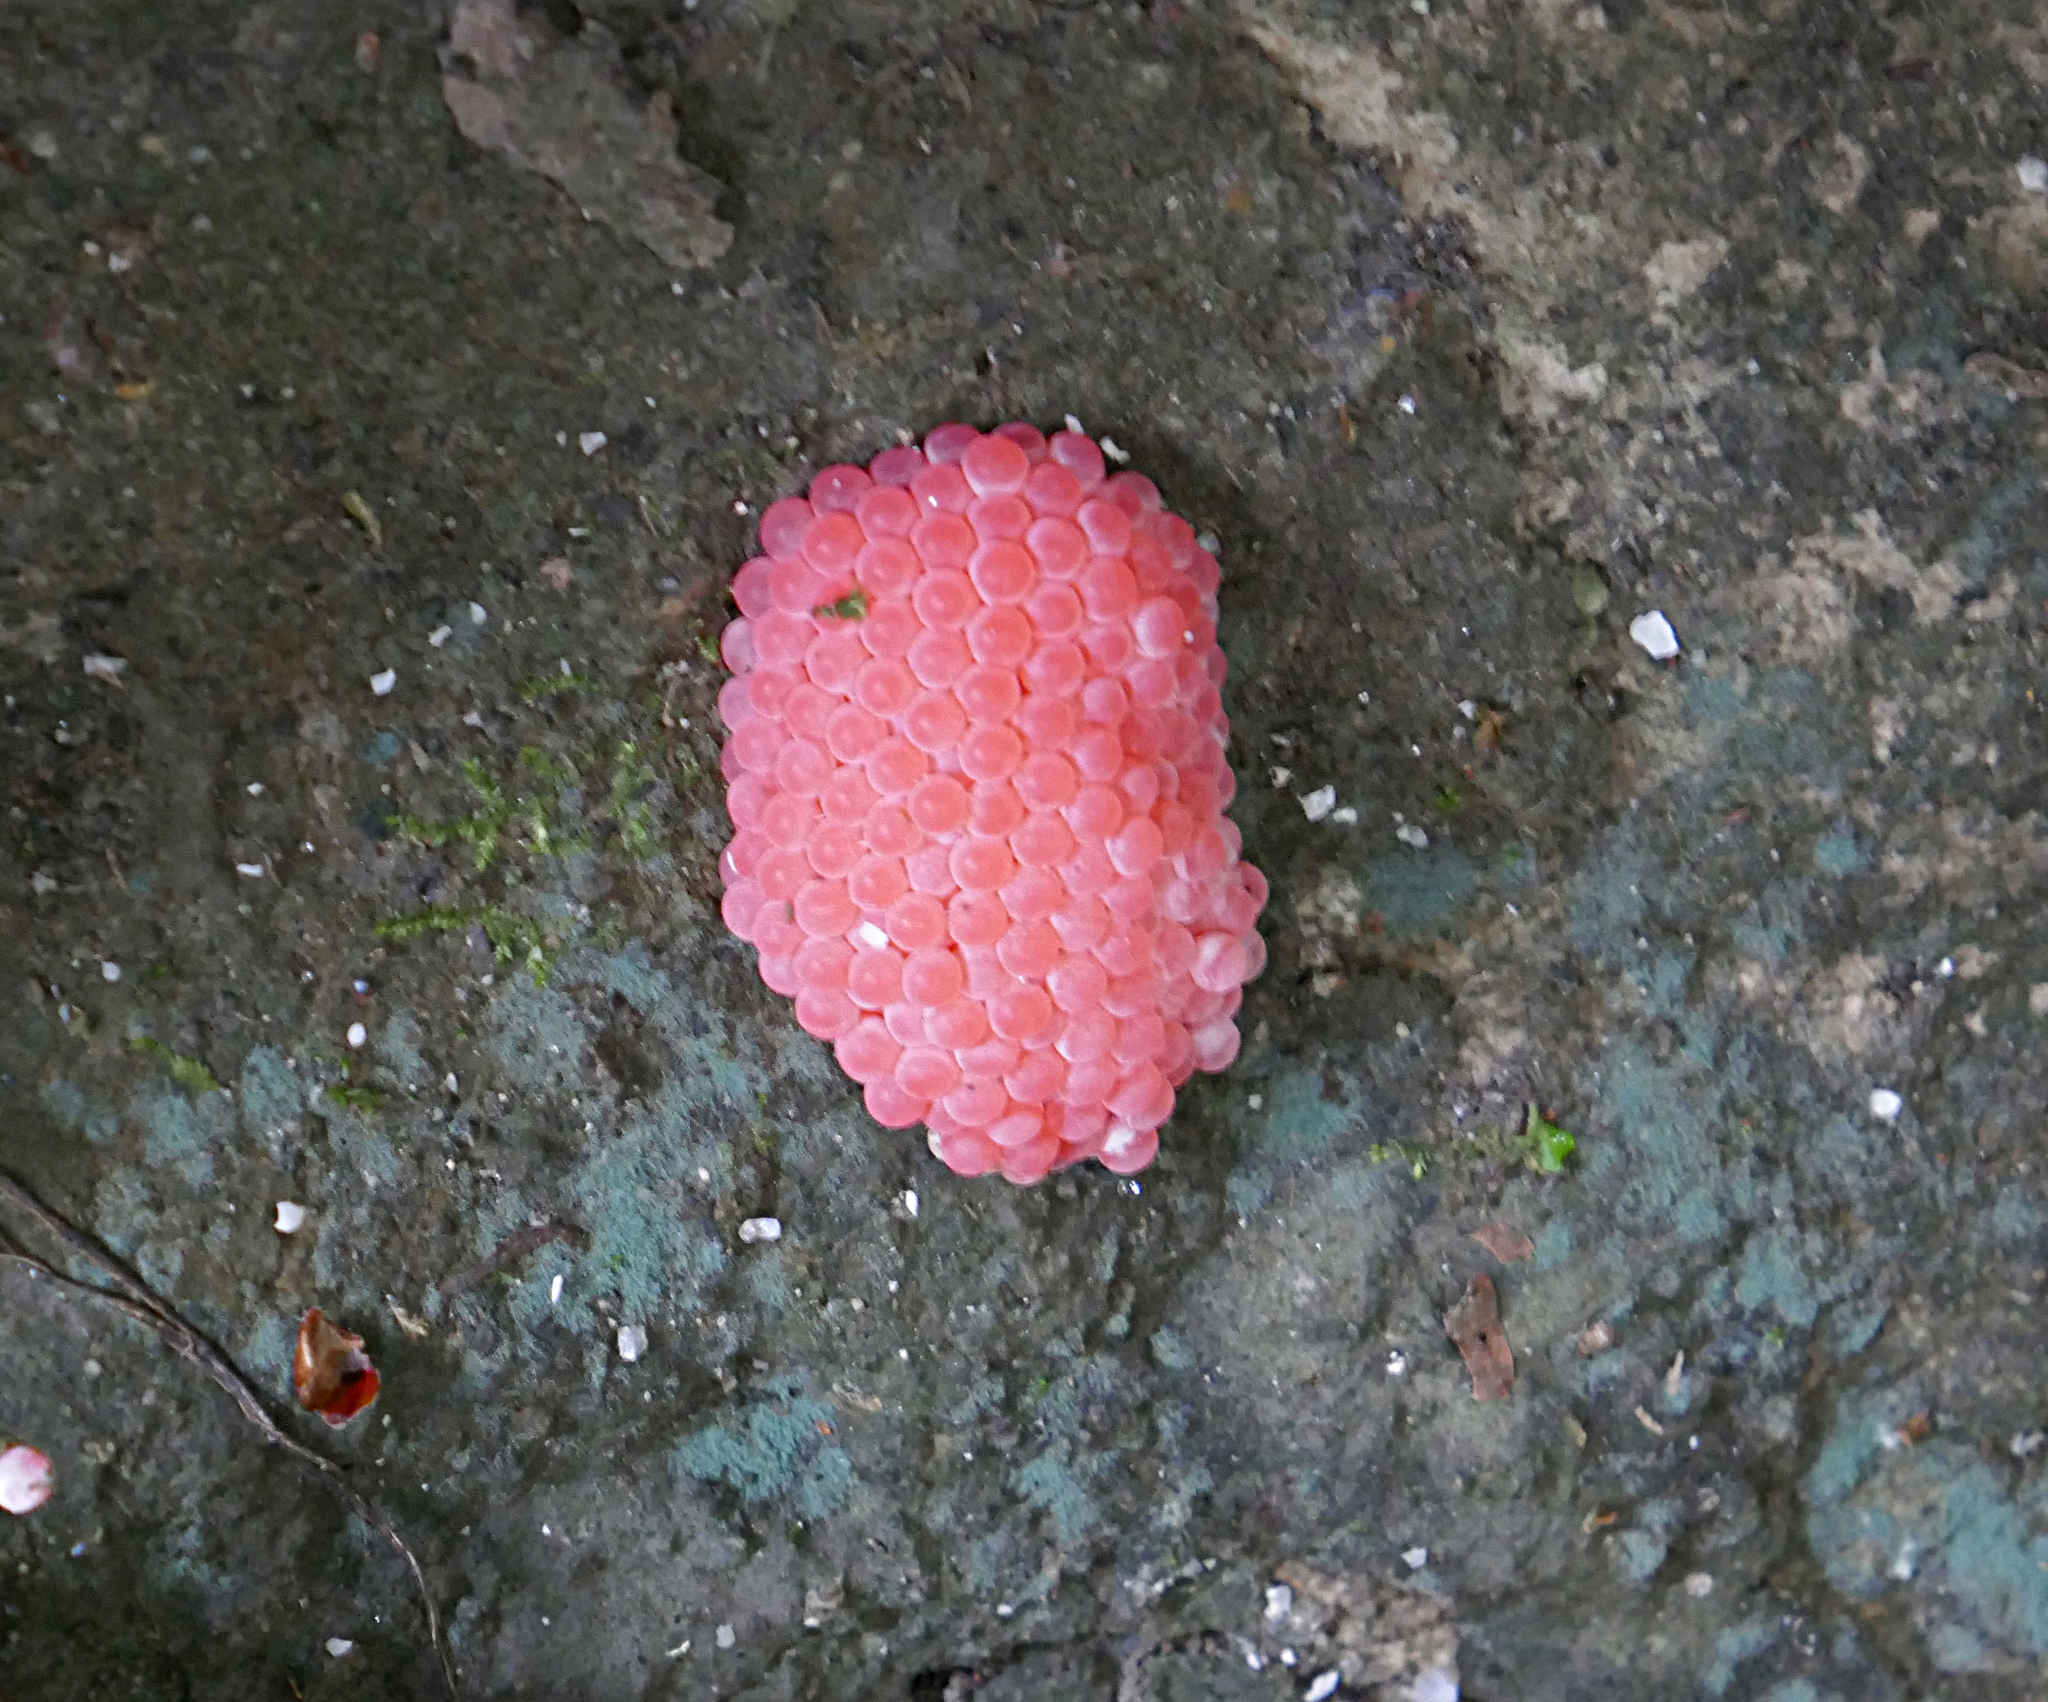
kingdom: Animalia
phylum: Mollusca
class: Gastropoda
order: Architaenioglossa
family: Ampullariidae
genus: Pomacea
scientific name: Pomacea canaliculata
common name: Channeled applesnail
